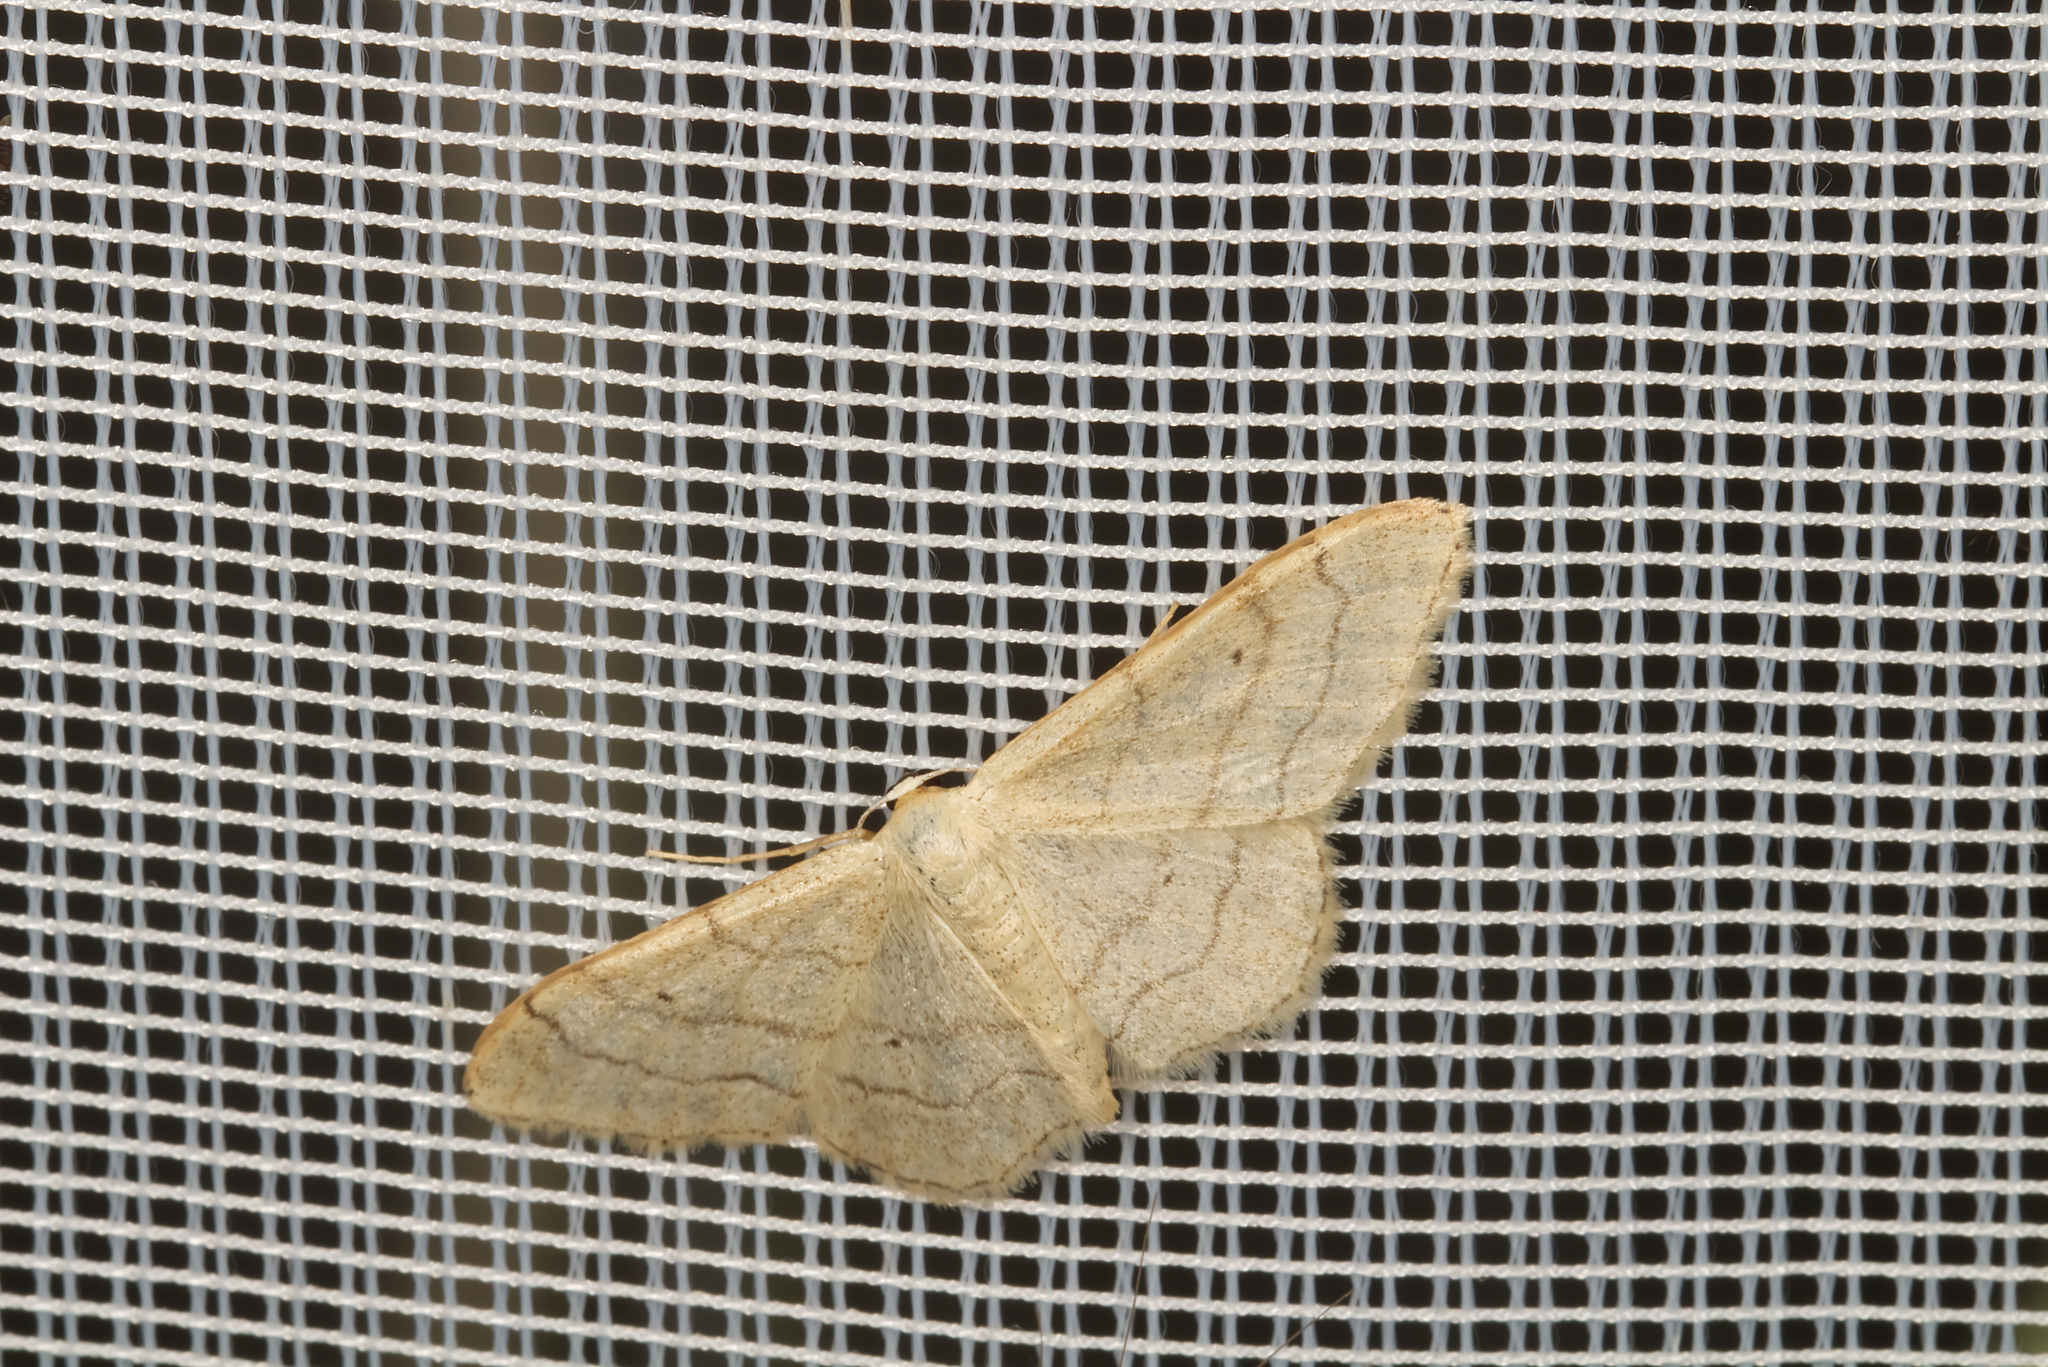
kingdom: Animalia
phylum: Arthropoda
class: Insecta
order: Lepidoptera
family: Geometridae
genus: Idaea
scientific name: Idaea aversata
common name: Riband wave
